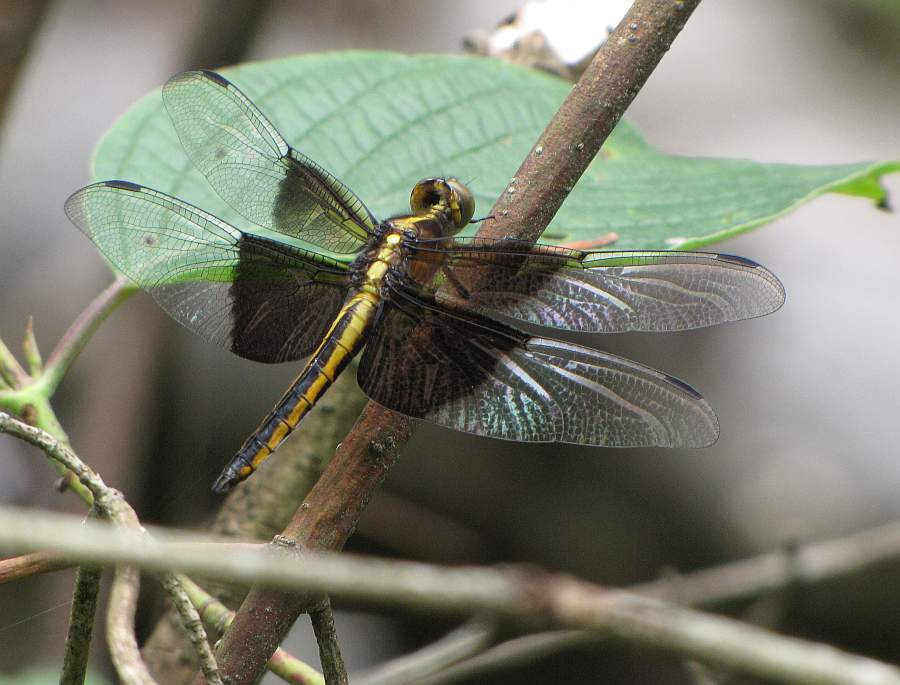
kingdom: Animalia
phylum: Arthropoda
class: Insecta
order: Odonata
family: Libellulidae
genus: Libellula
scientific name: Libellula luctuosa
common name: Widow skimmer
